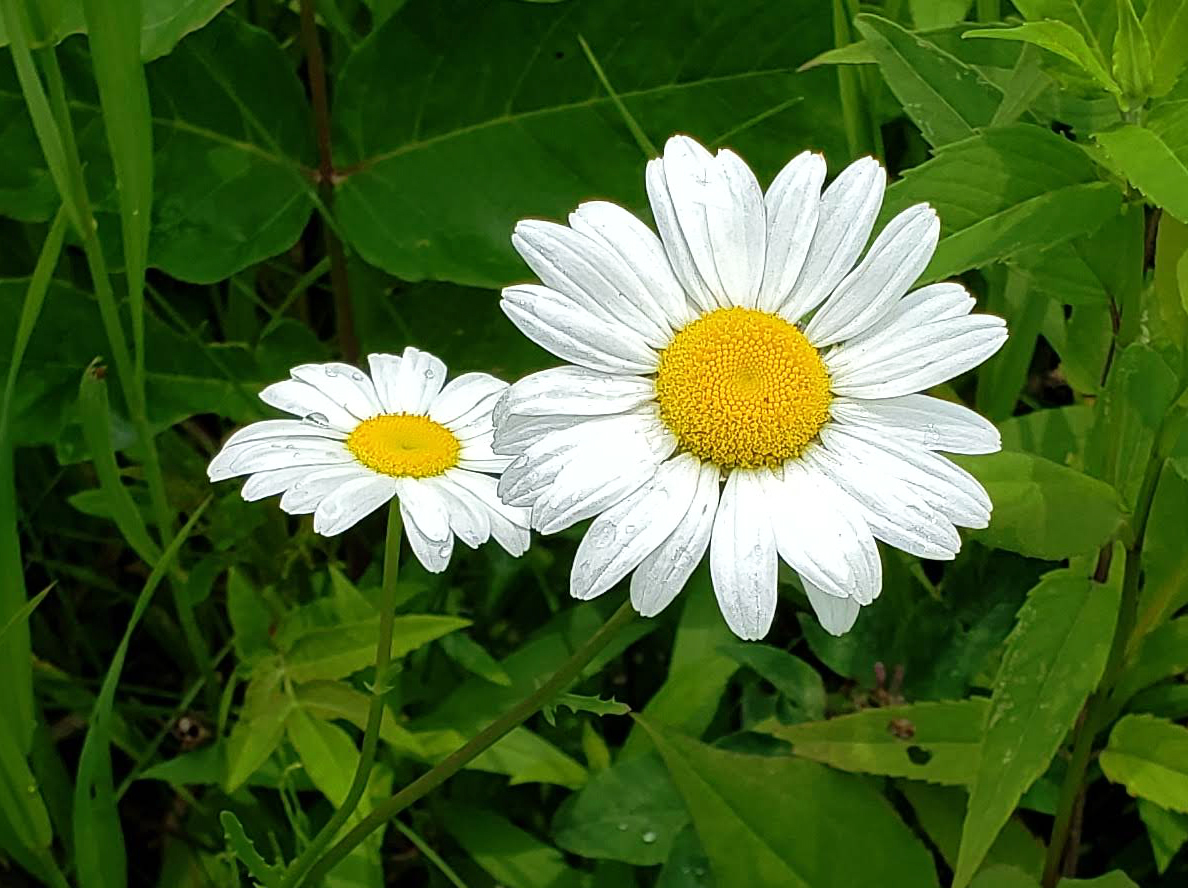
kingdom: Plantae
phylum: Tracheophyta
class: Magnoliopsida
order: Asterales
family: Asteraceae
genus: Leucanthemum
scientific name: Leucanthemum vulgare
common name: Oxeye daisy
